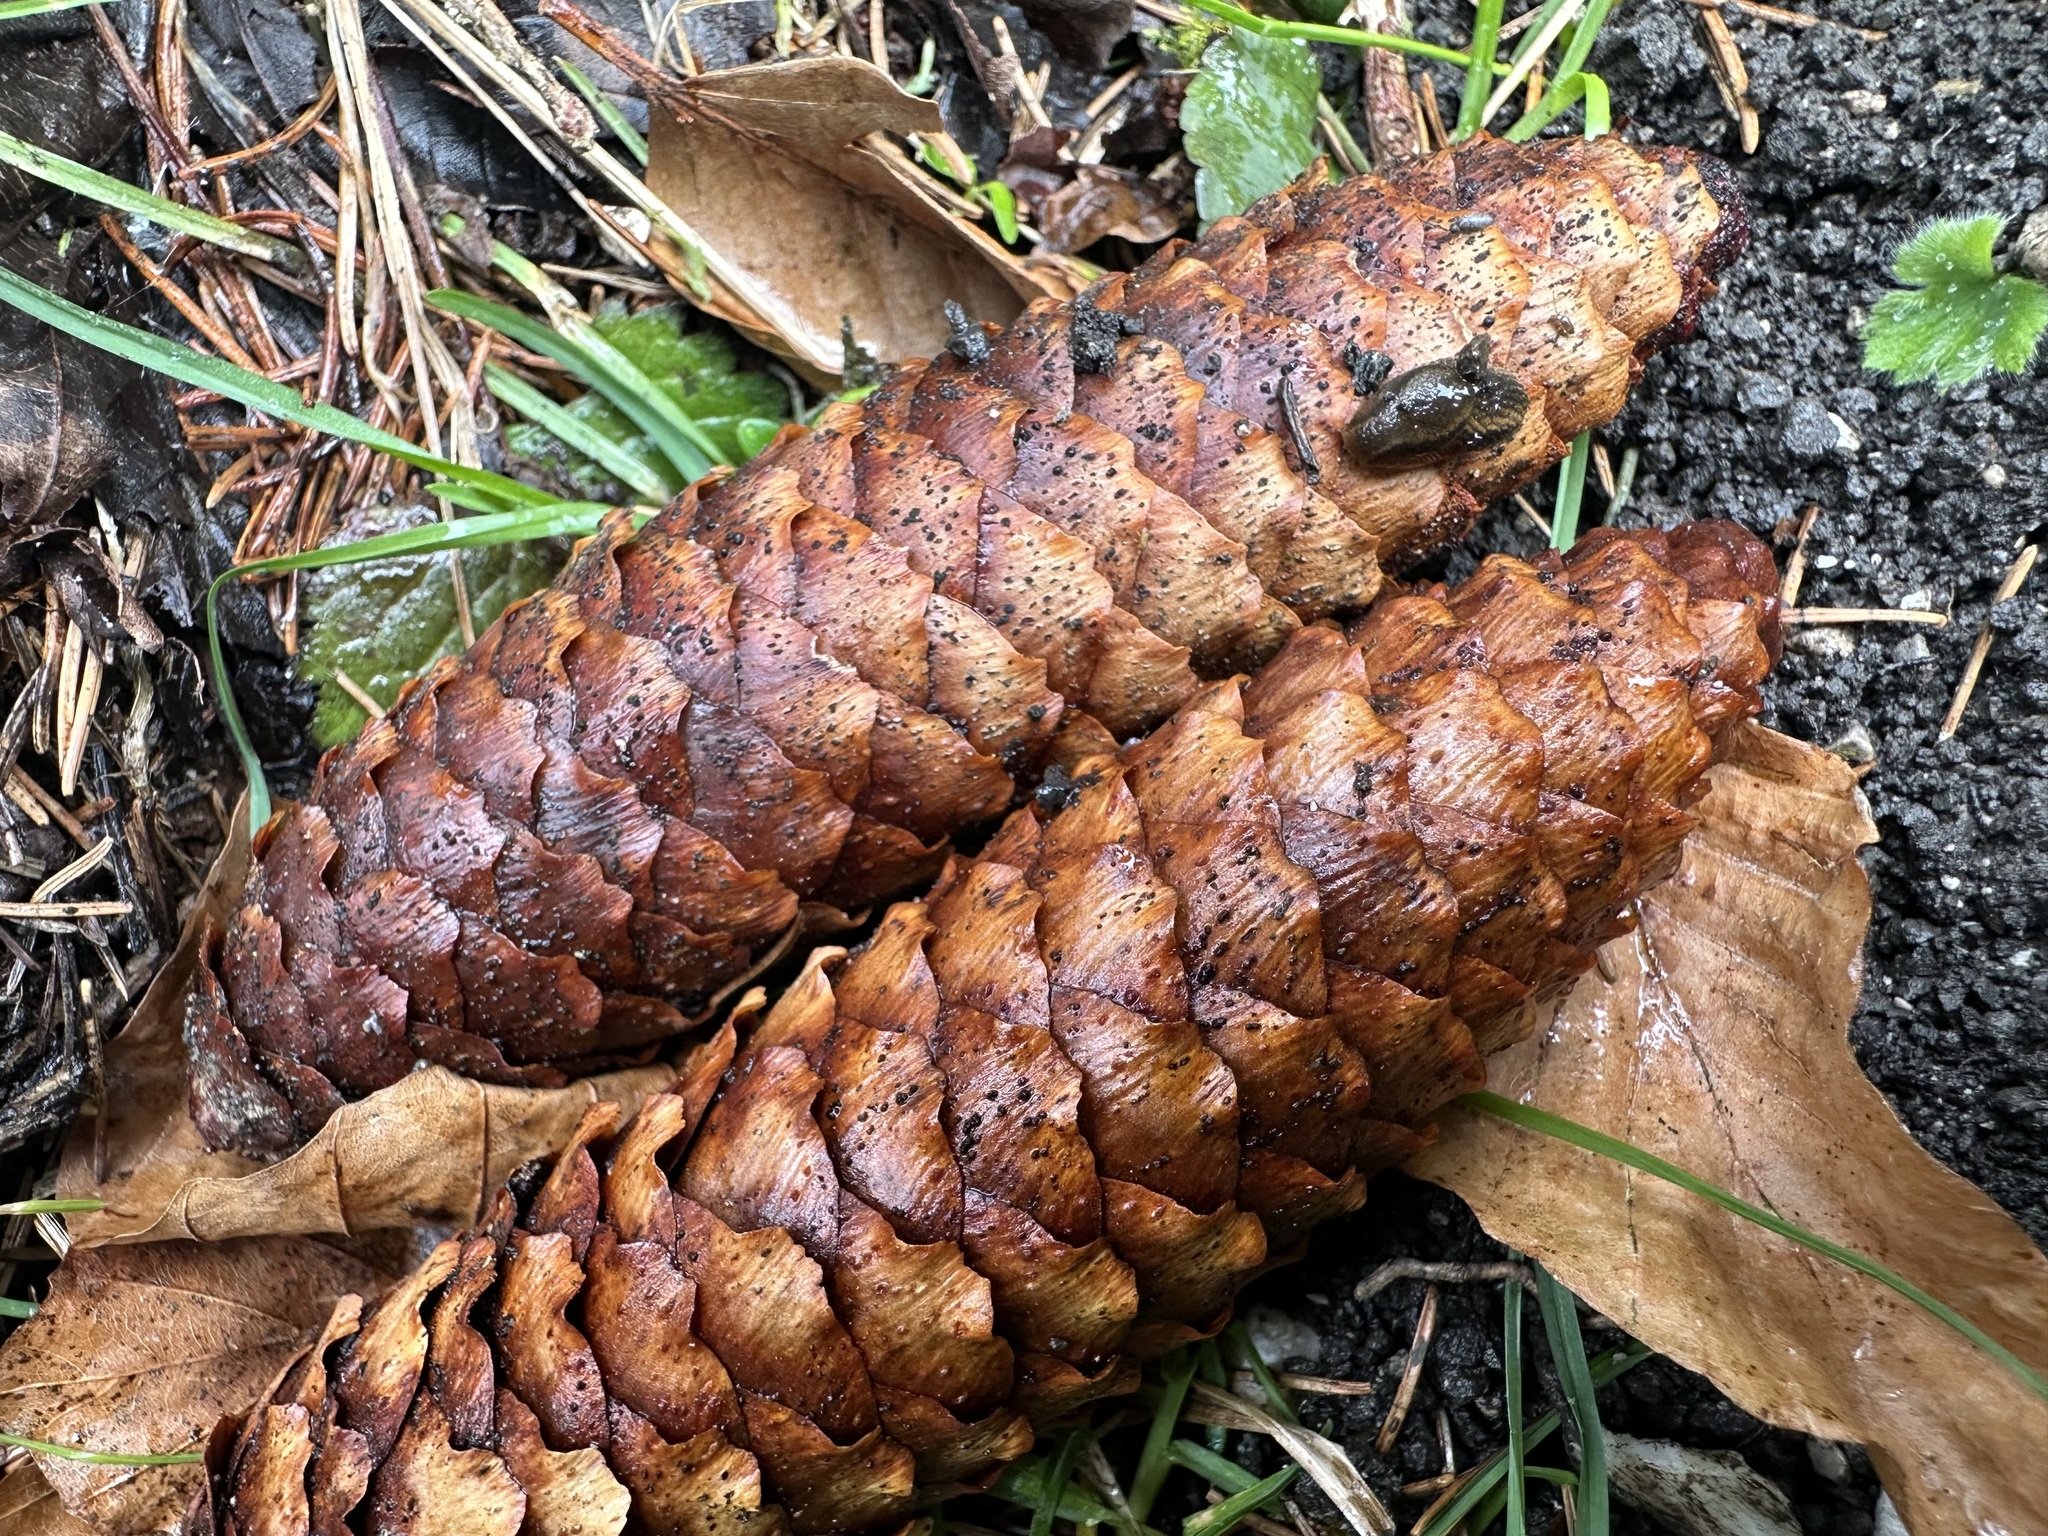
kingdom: Fungi
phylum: Ascomycota
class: Dothideomycetes
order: Pleosporales
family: Melanommataceae
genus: Phragmotrichum
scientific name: Phragmotrichum chailletii
